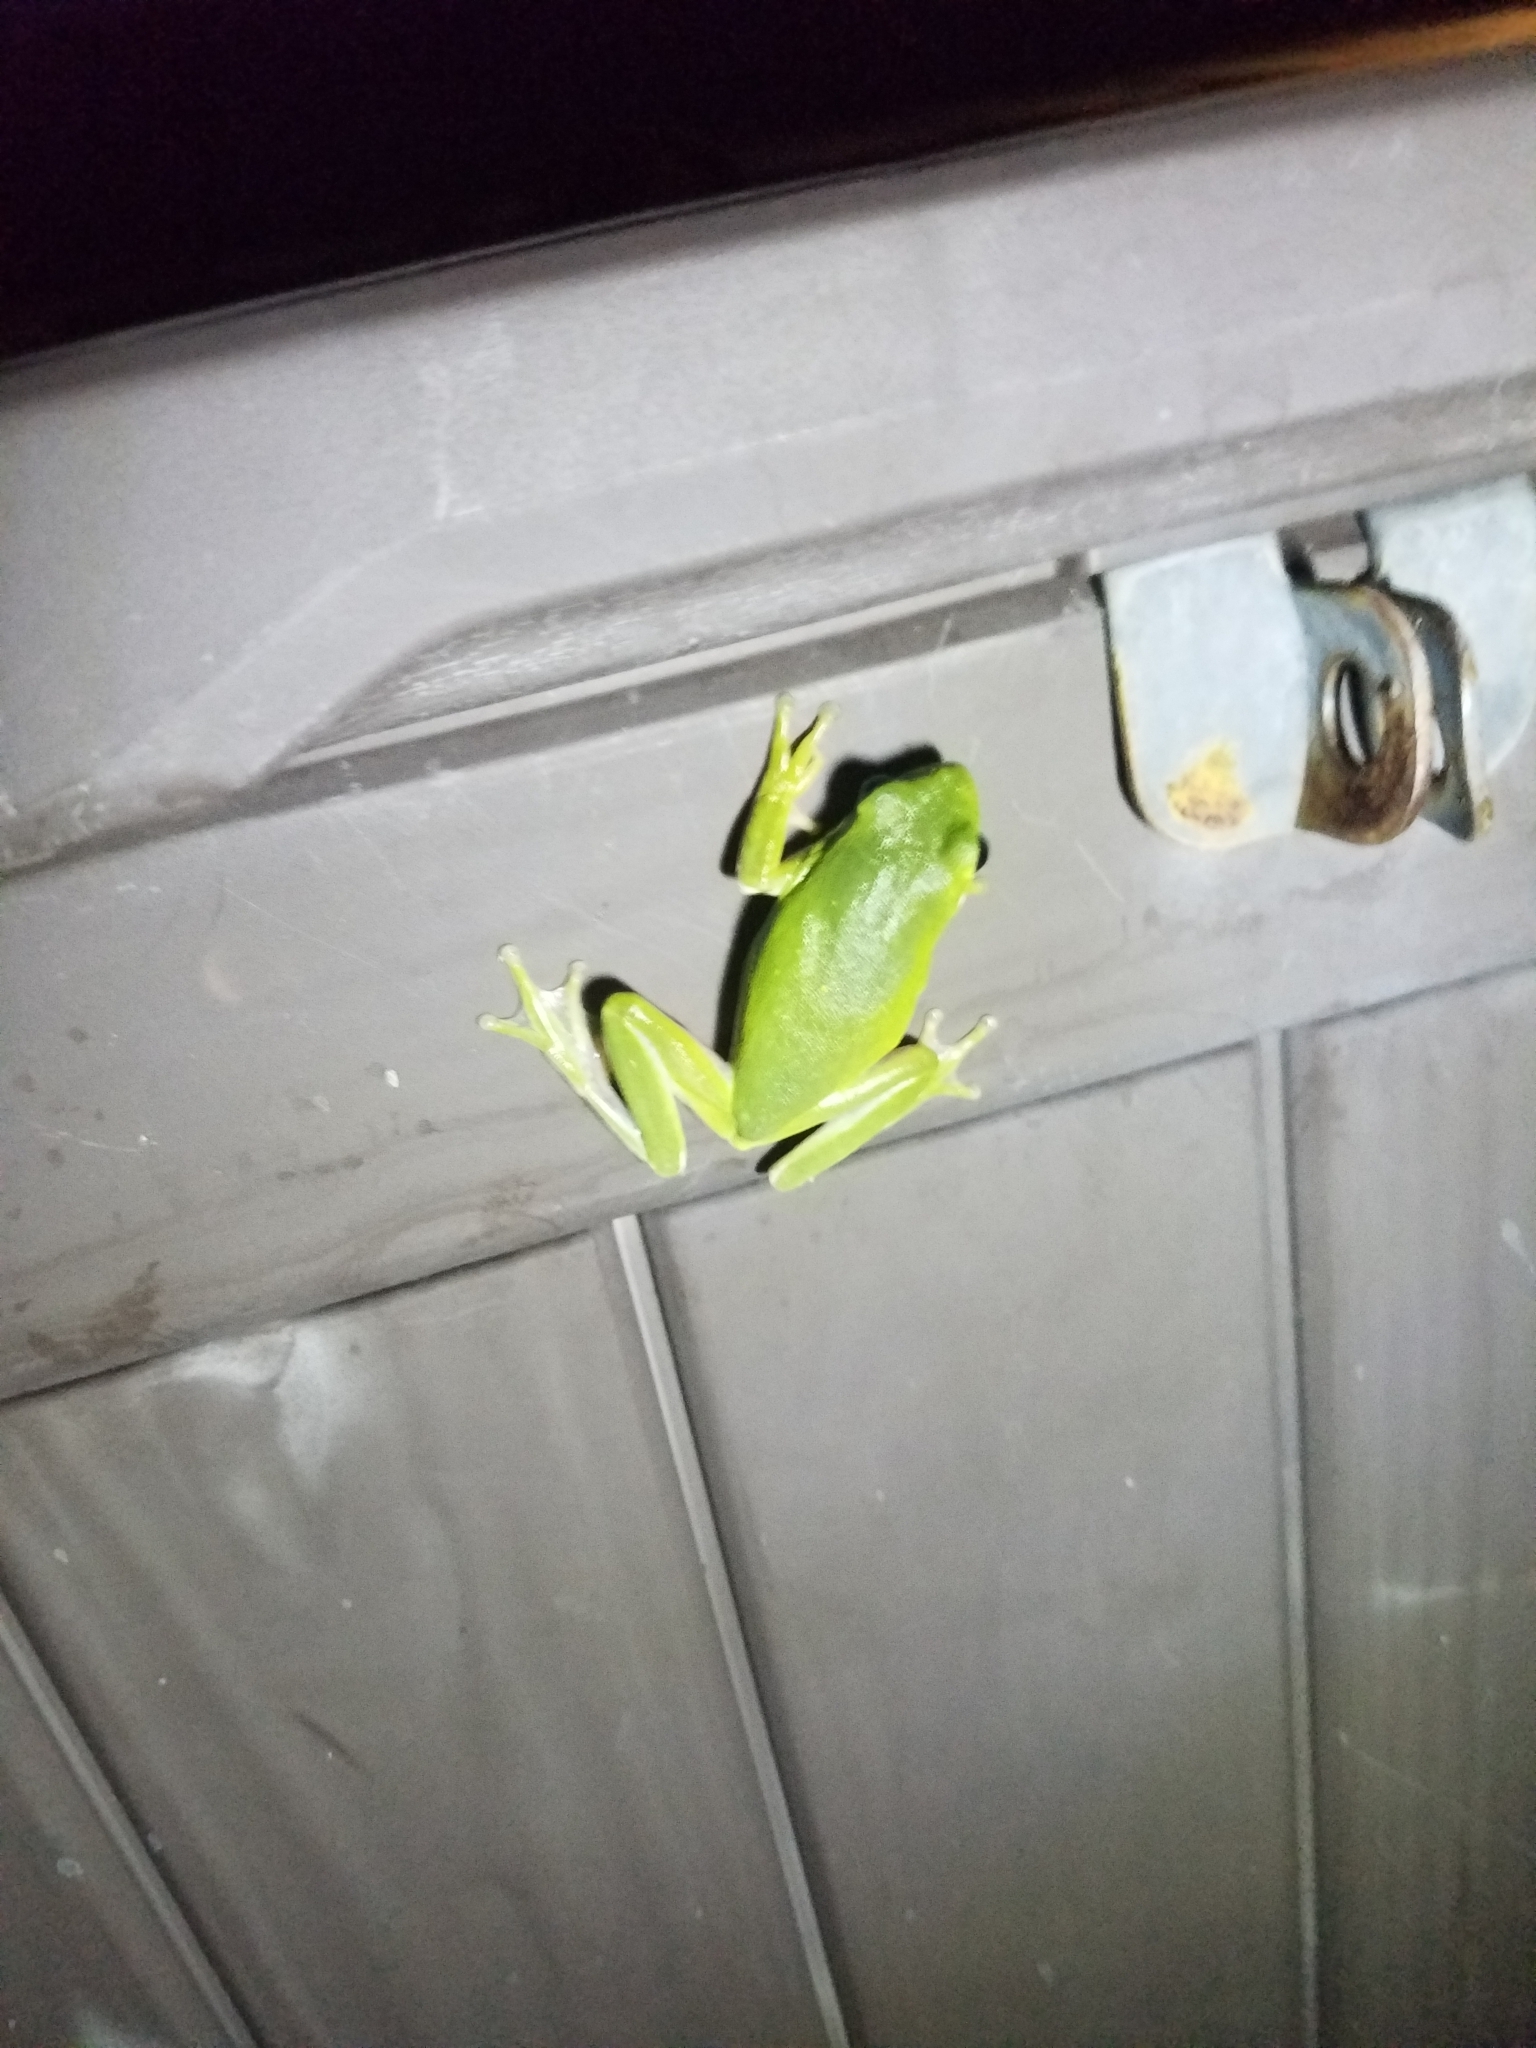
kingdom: Animalia
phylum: Chordata
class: Amphibia
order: Anura
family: Hylidae
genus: Dryophytes
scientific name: Dryophytes cinereus
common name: Green treefrog
